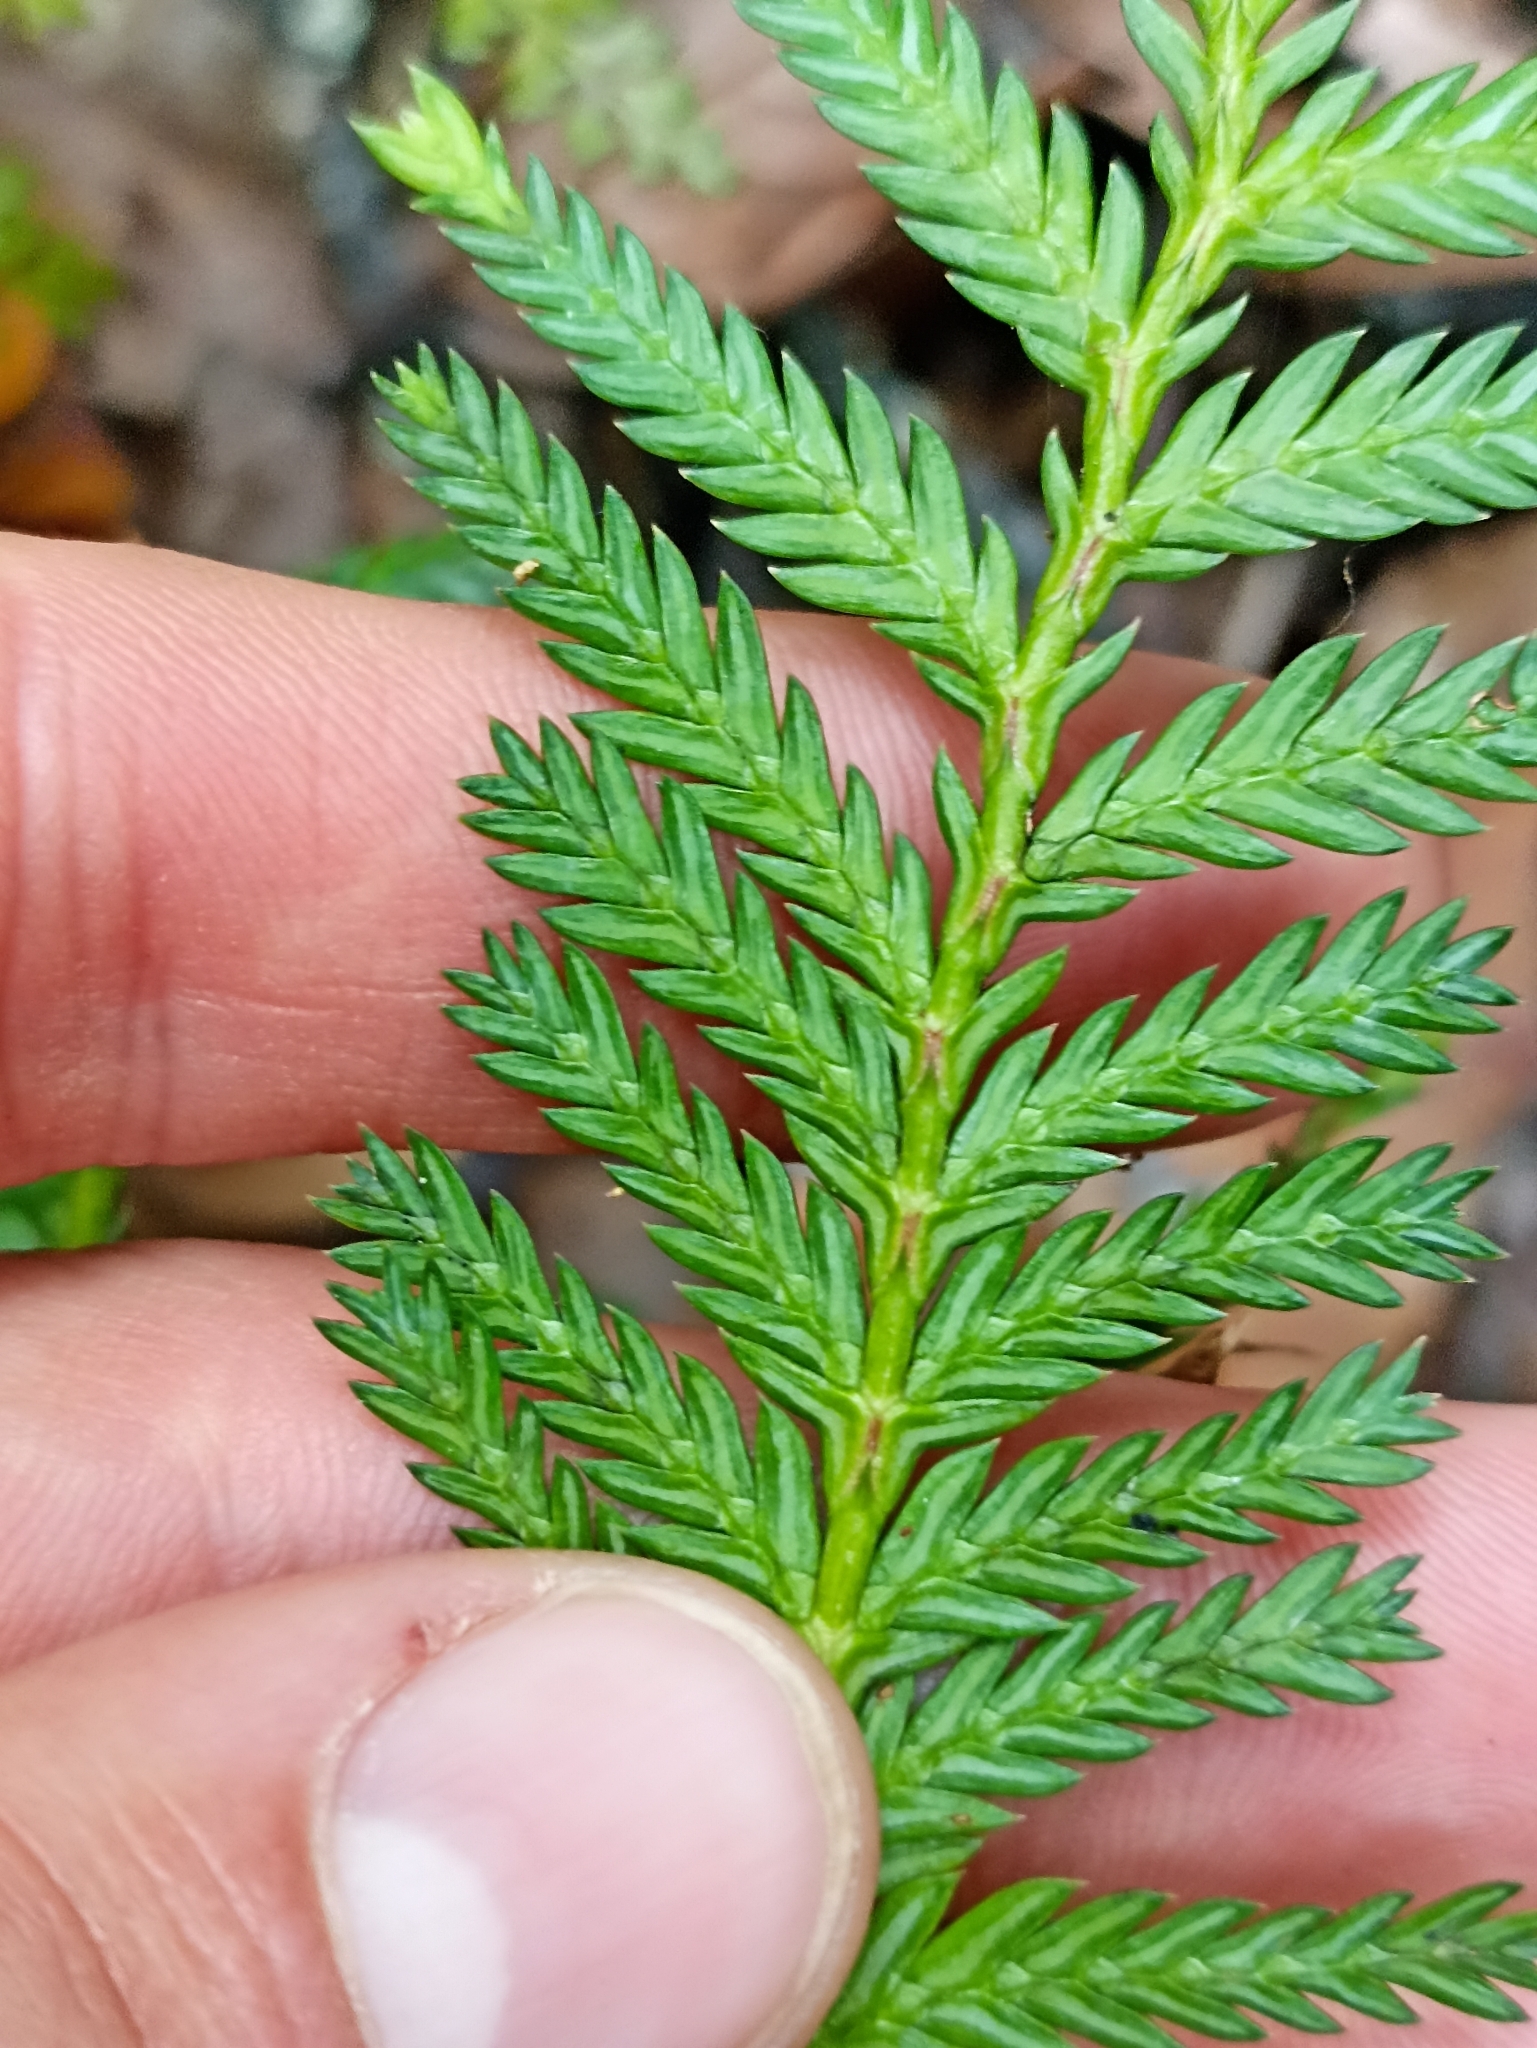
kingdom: Plantae
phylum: Tracheophyta
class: Pinopsida
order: Pinales
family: Cupressaceae
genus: Libocedrus
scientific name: Libocedrus plumosa
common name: New zealand cedar
